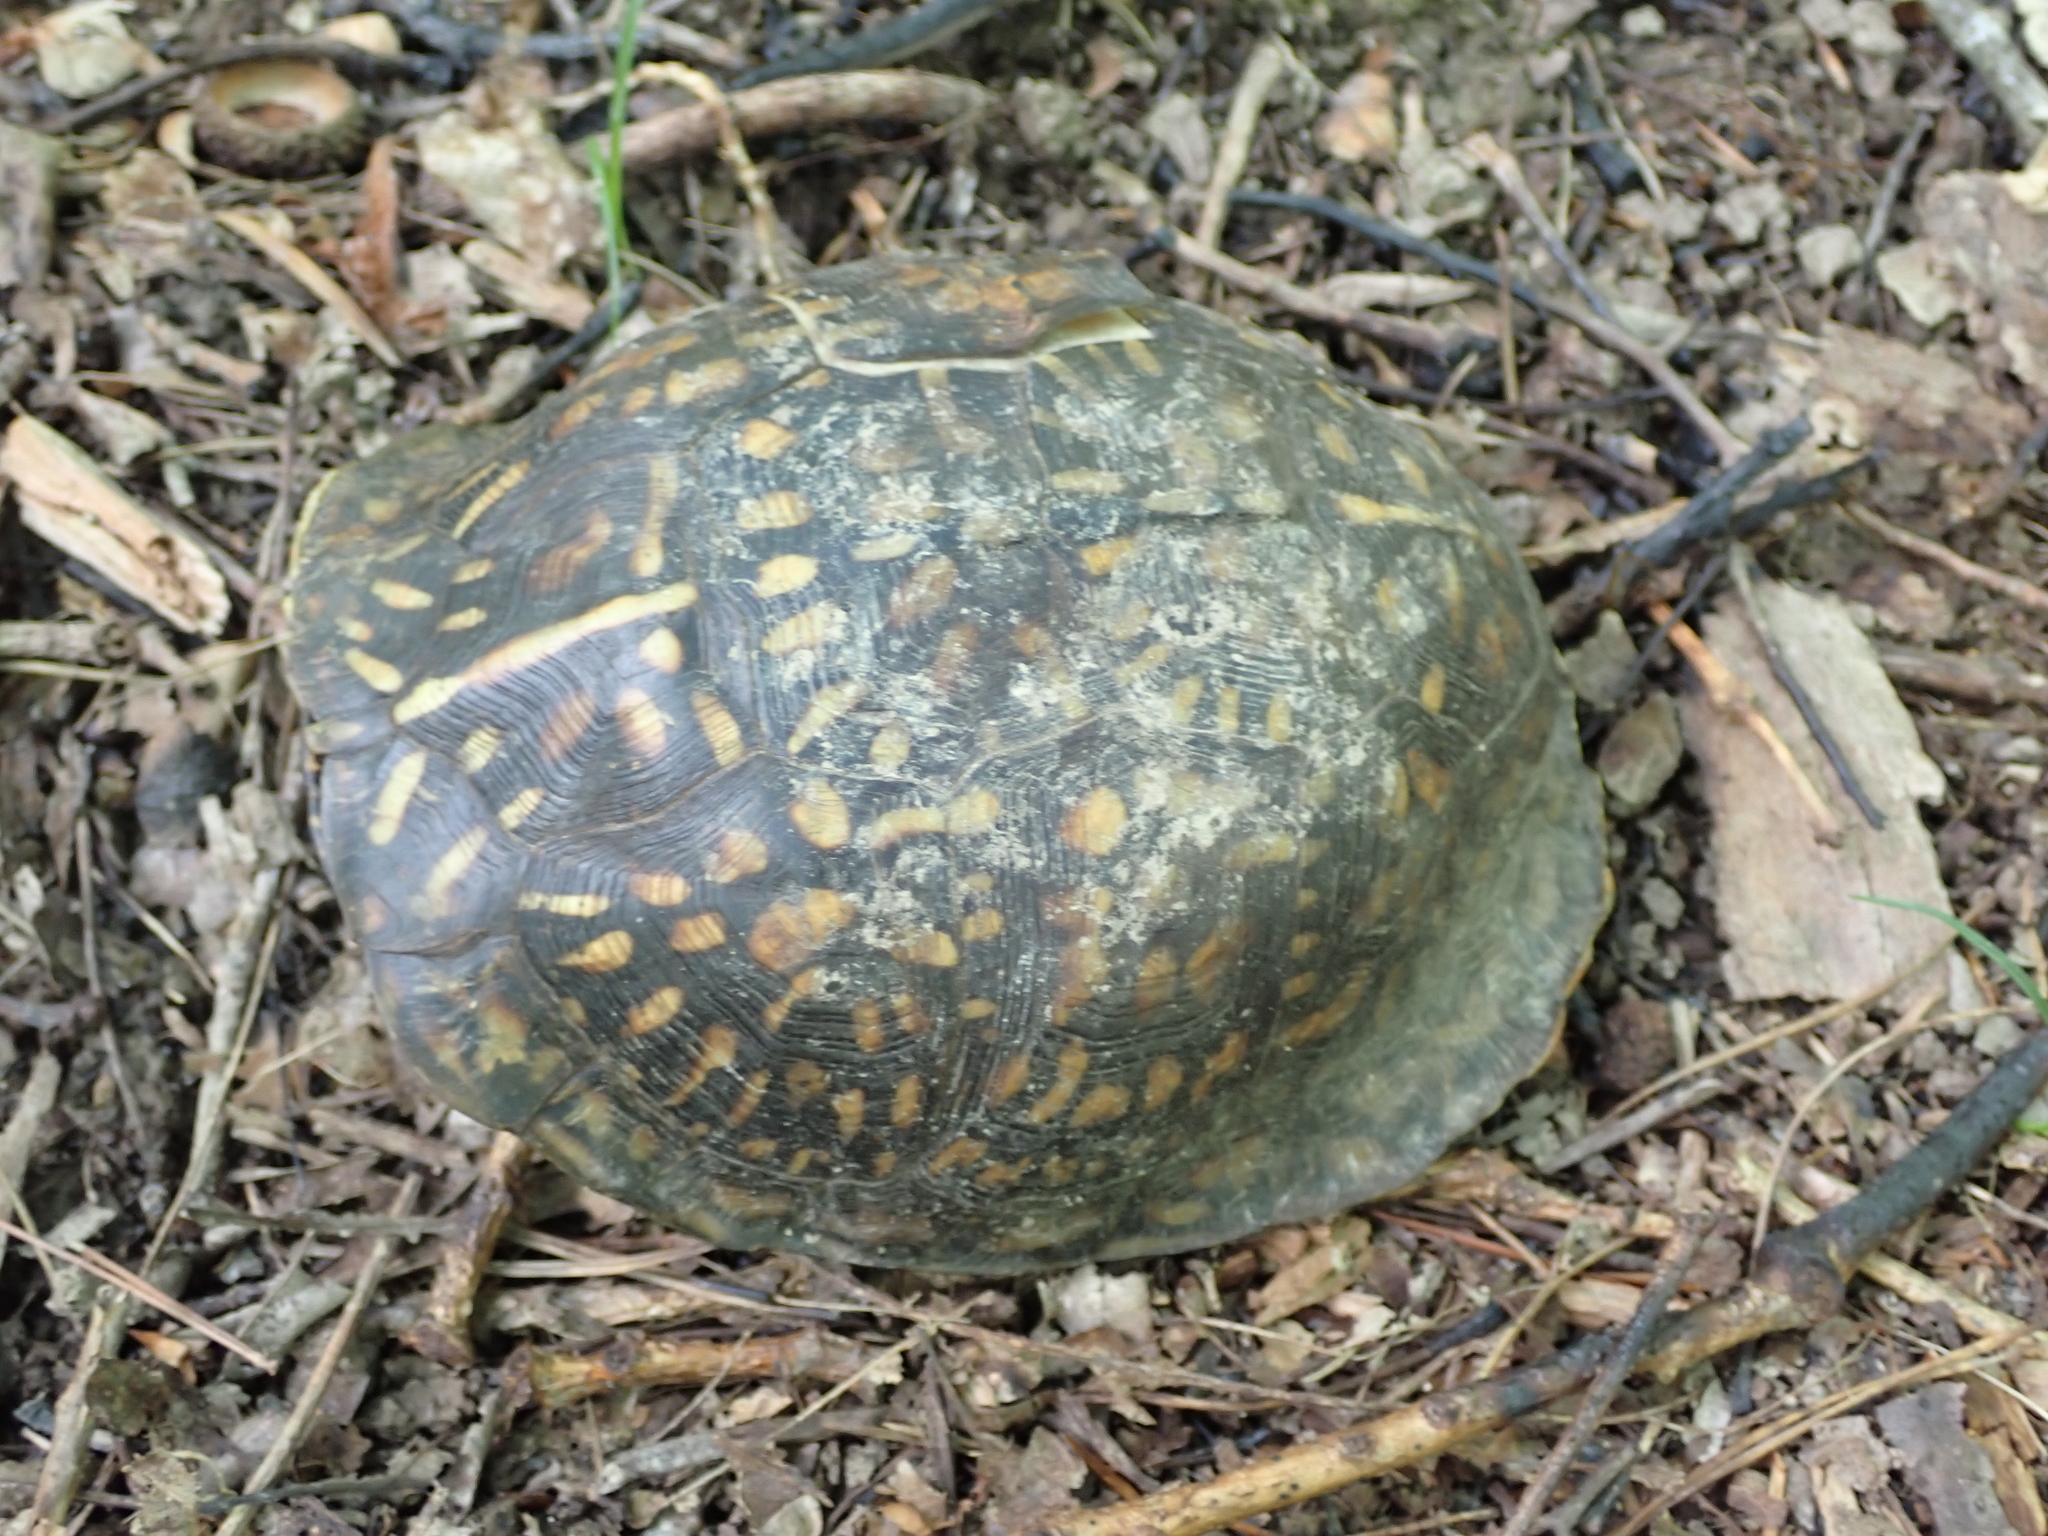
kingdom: Animalia
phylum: Chordata
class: Testudines
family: Emydidae
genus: Terrapene
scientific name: Terrapene carolina
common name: Common box turtle
